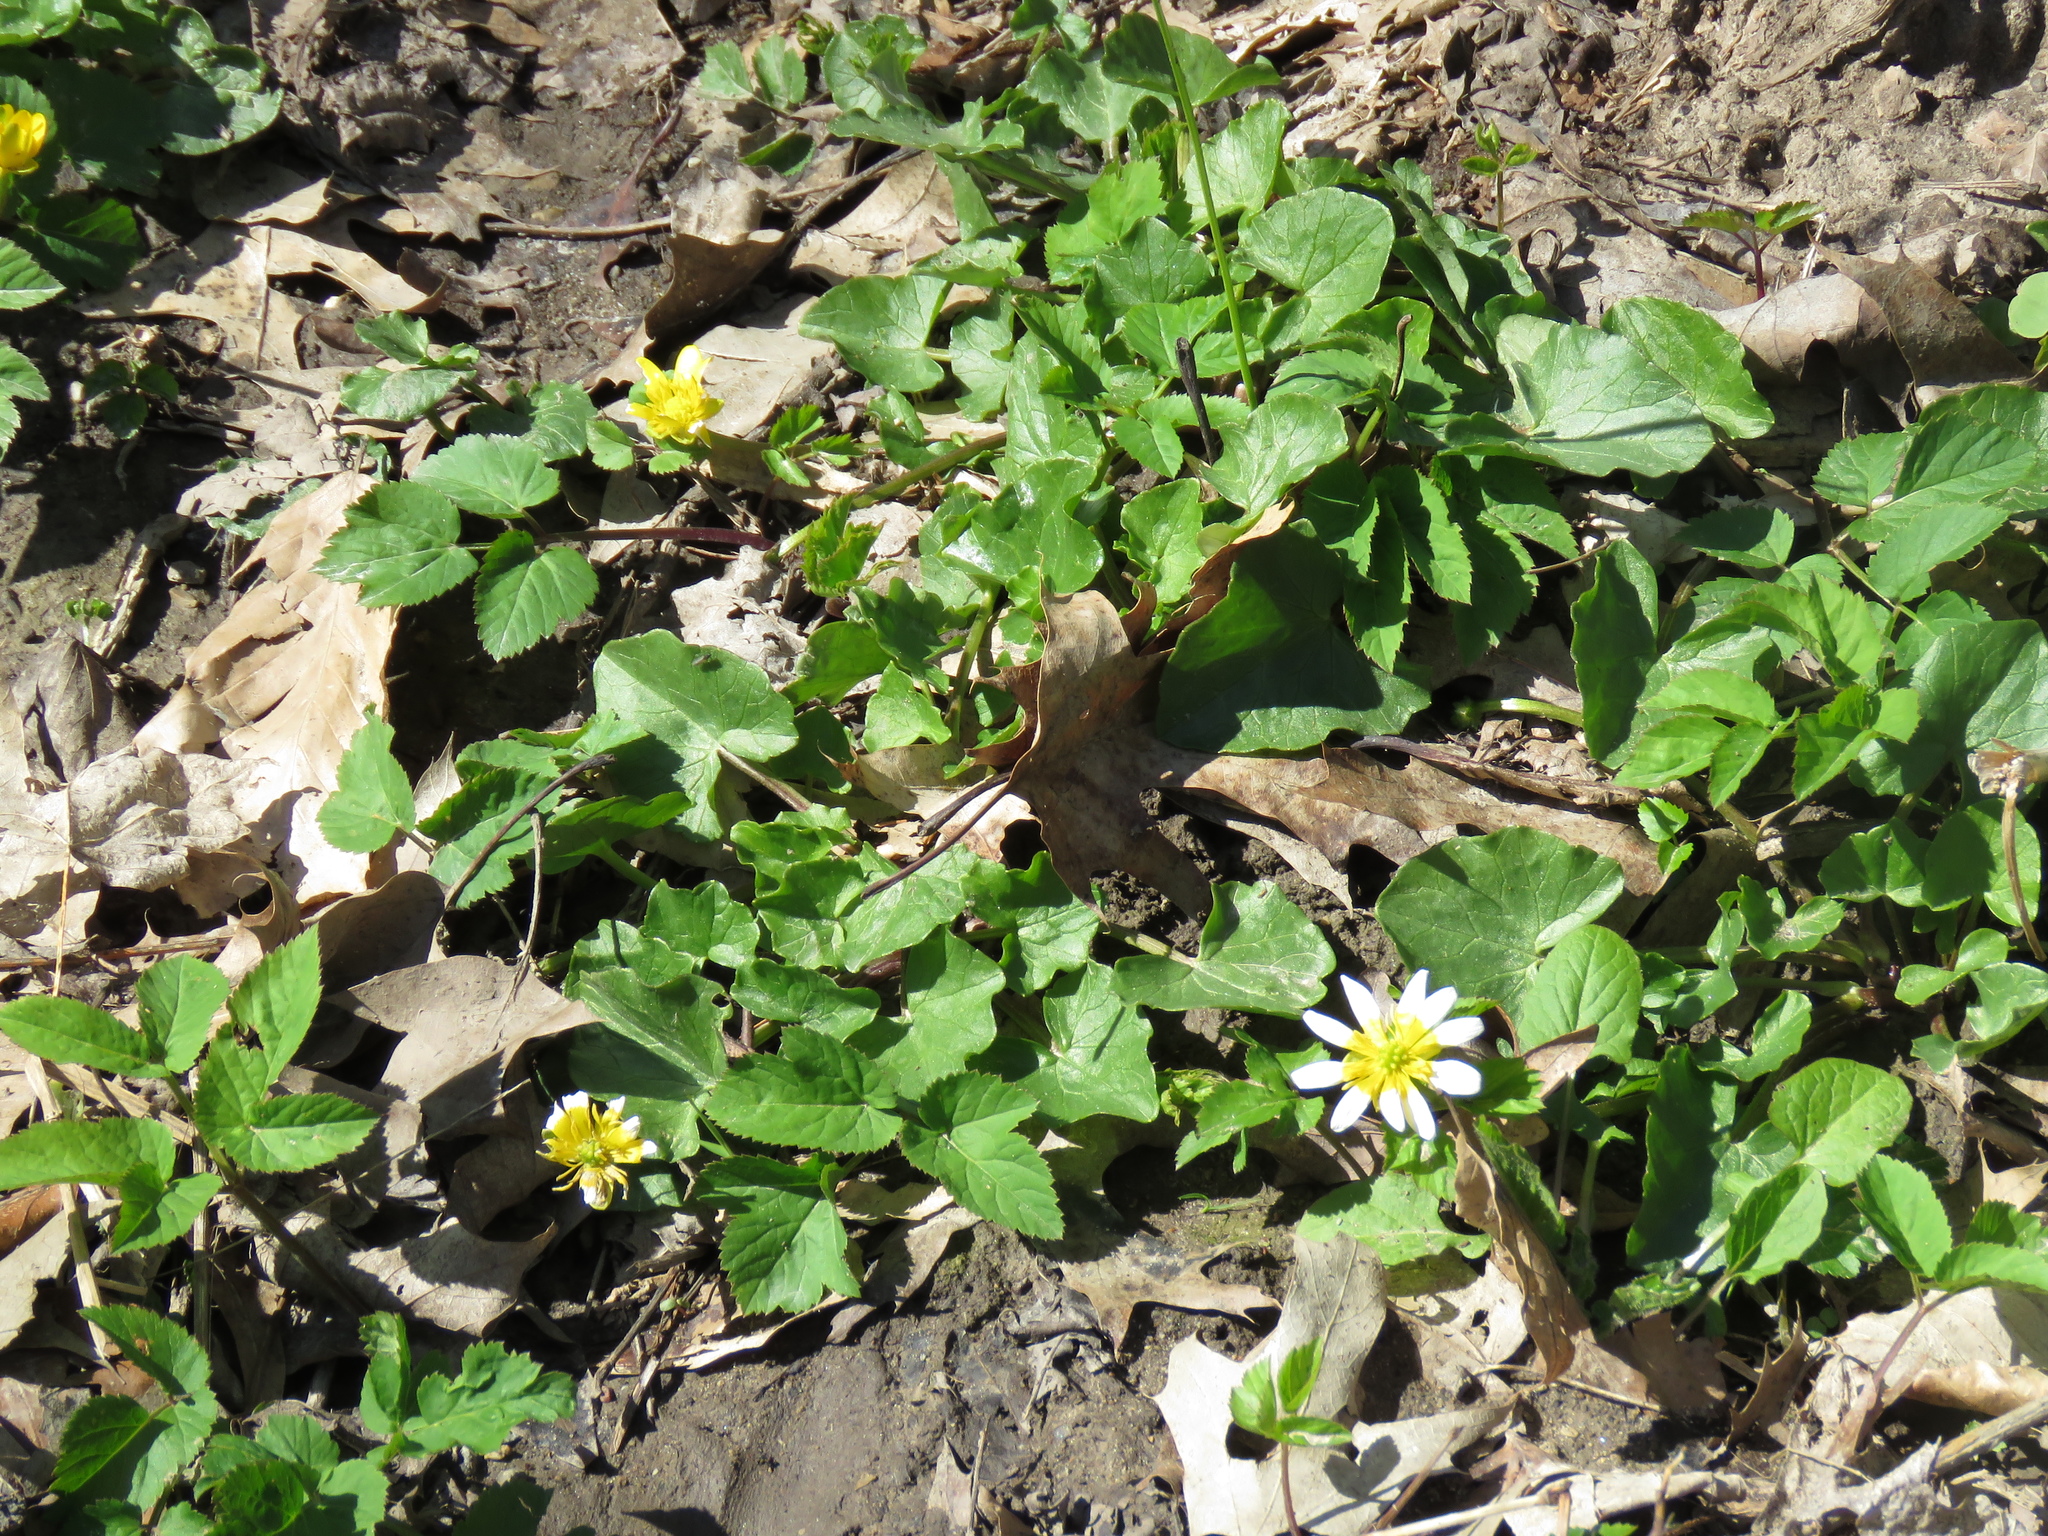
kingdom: Plantae
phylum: Tracheophyta
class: Magnoliopsida
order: Ranunculales
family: Ranunculaceae
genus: Ficaria
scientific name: Ficaria verna
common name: Lesser celandine
